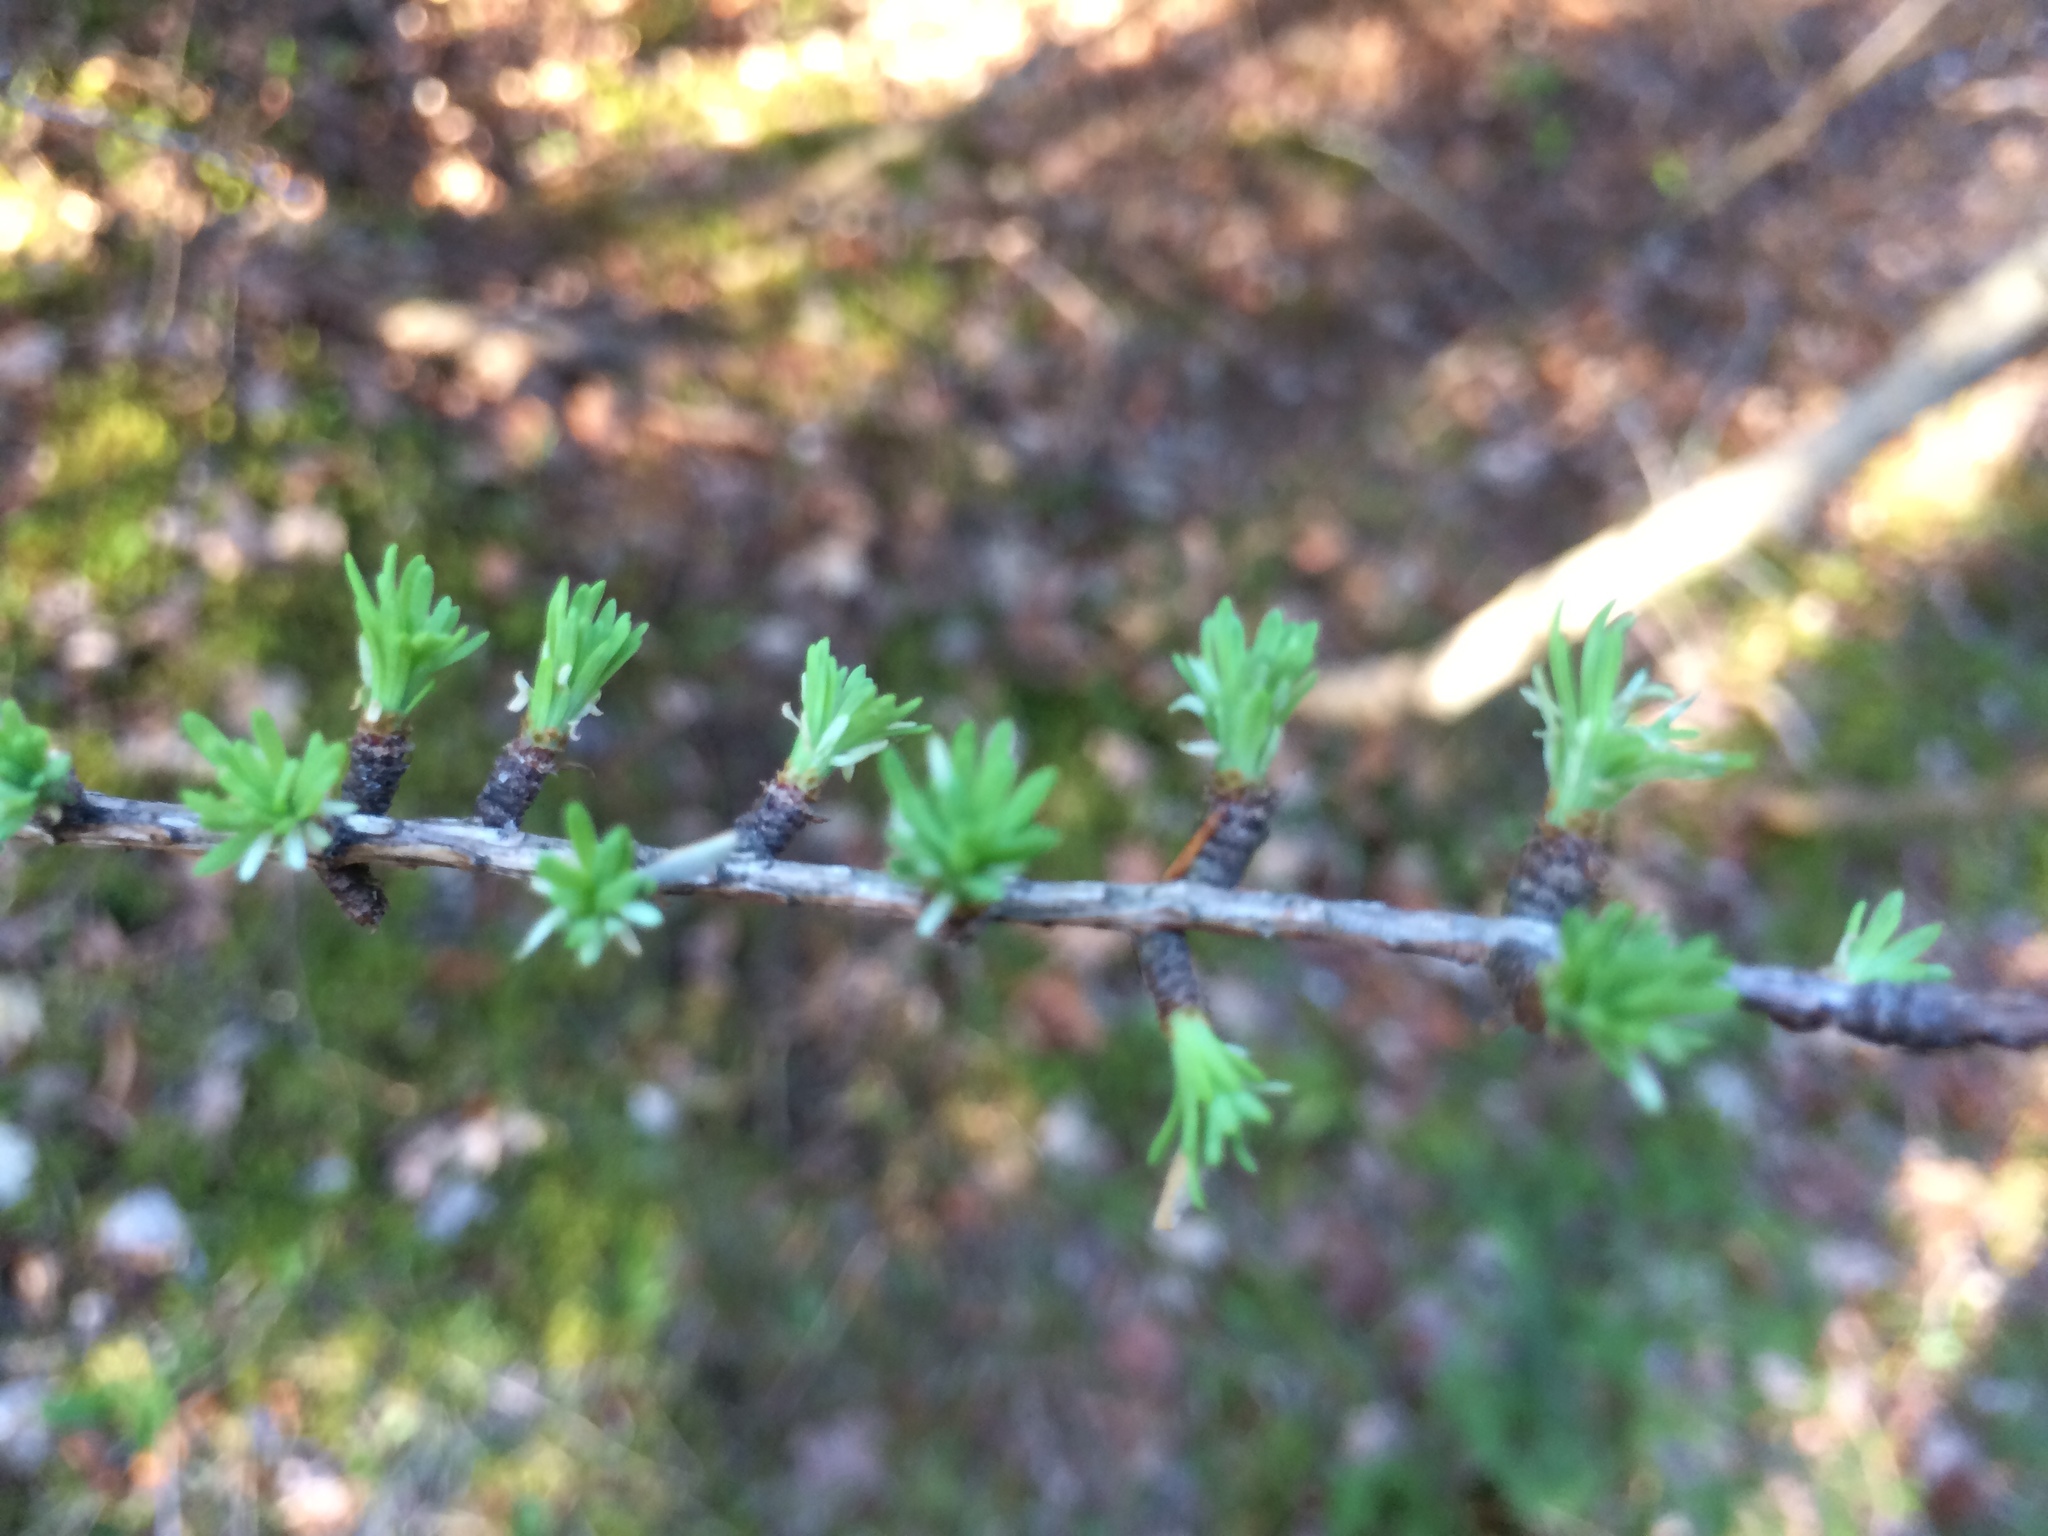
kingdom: Plantae
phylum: Tracheophyta
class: Pinopsida
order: Pinales
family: Pinaceae
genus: Larix
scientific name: Larix laricina
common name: American larch
